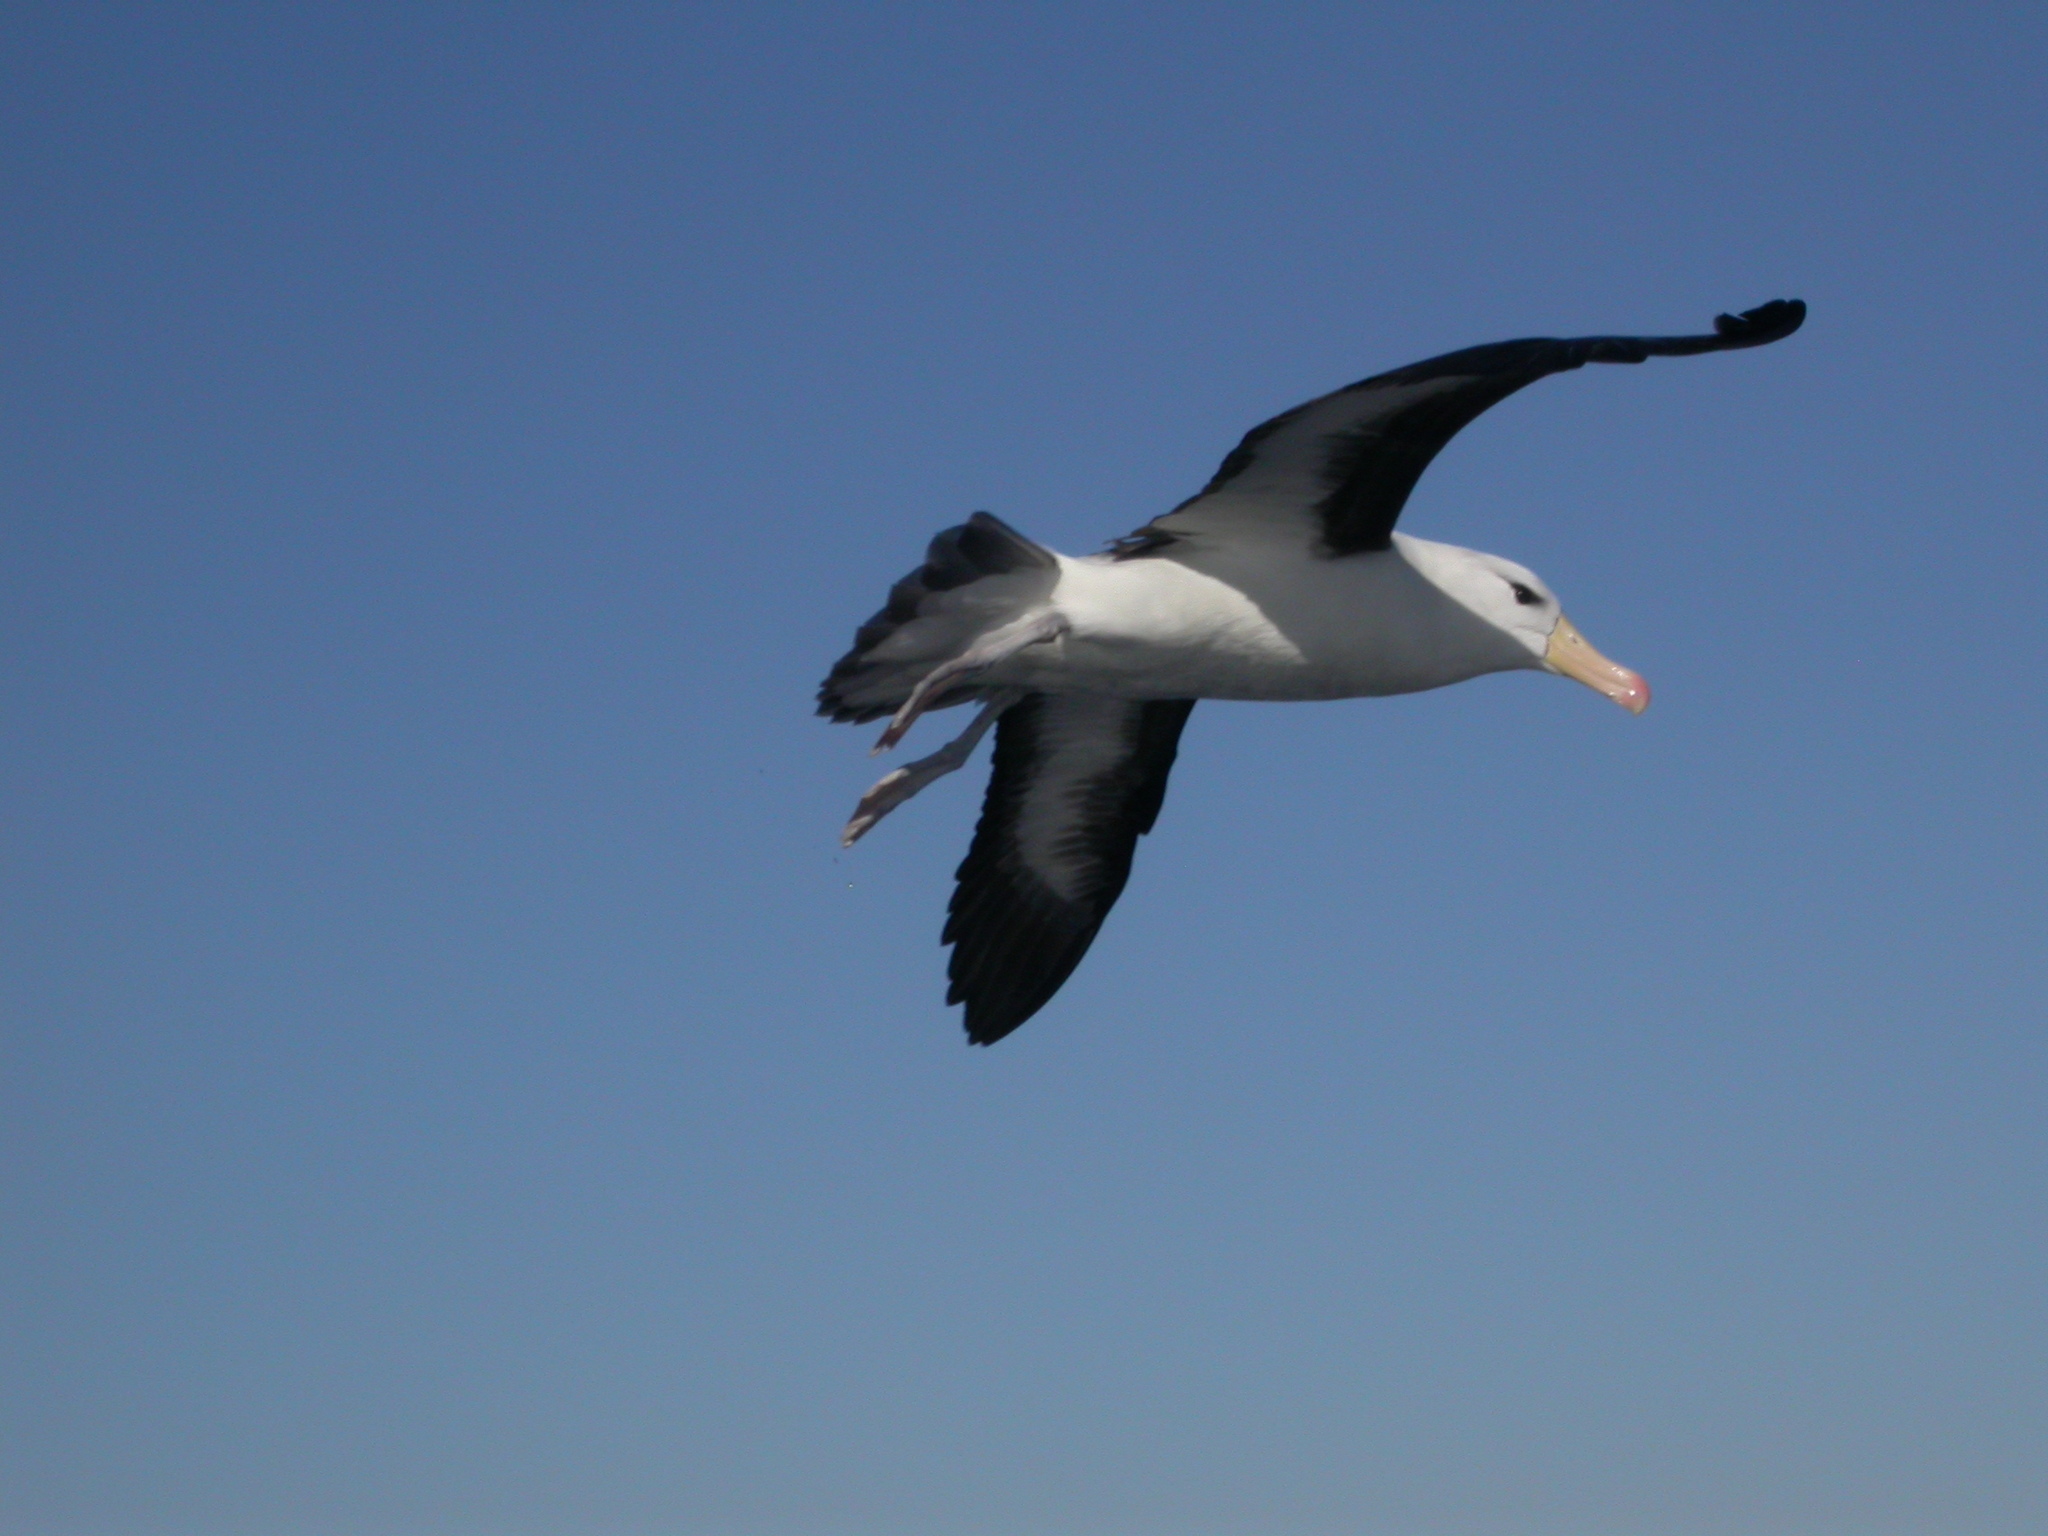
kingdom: Animalia
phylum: Chordata
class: Aves
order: Procellariiformes
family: Diomedeidae
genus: Thalassarche
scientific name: Thalassarche melanophris
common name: Black-browed albatross
